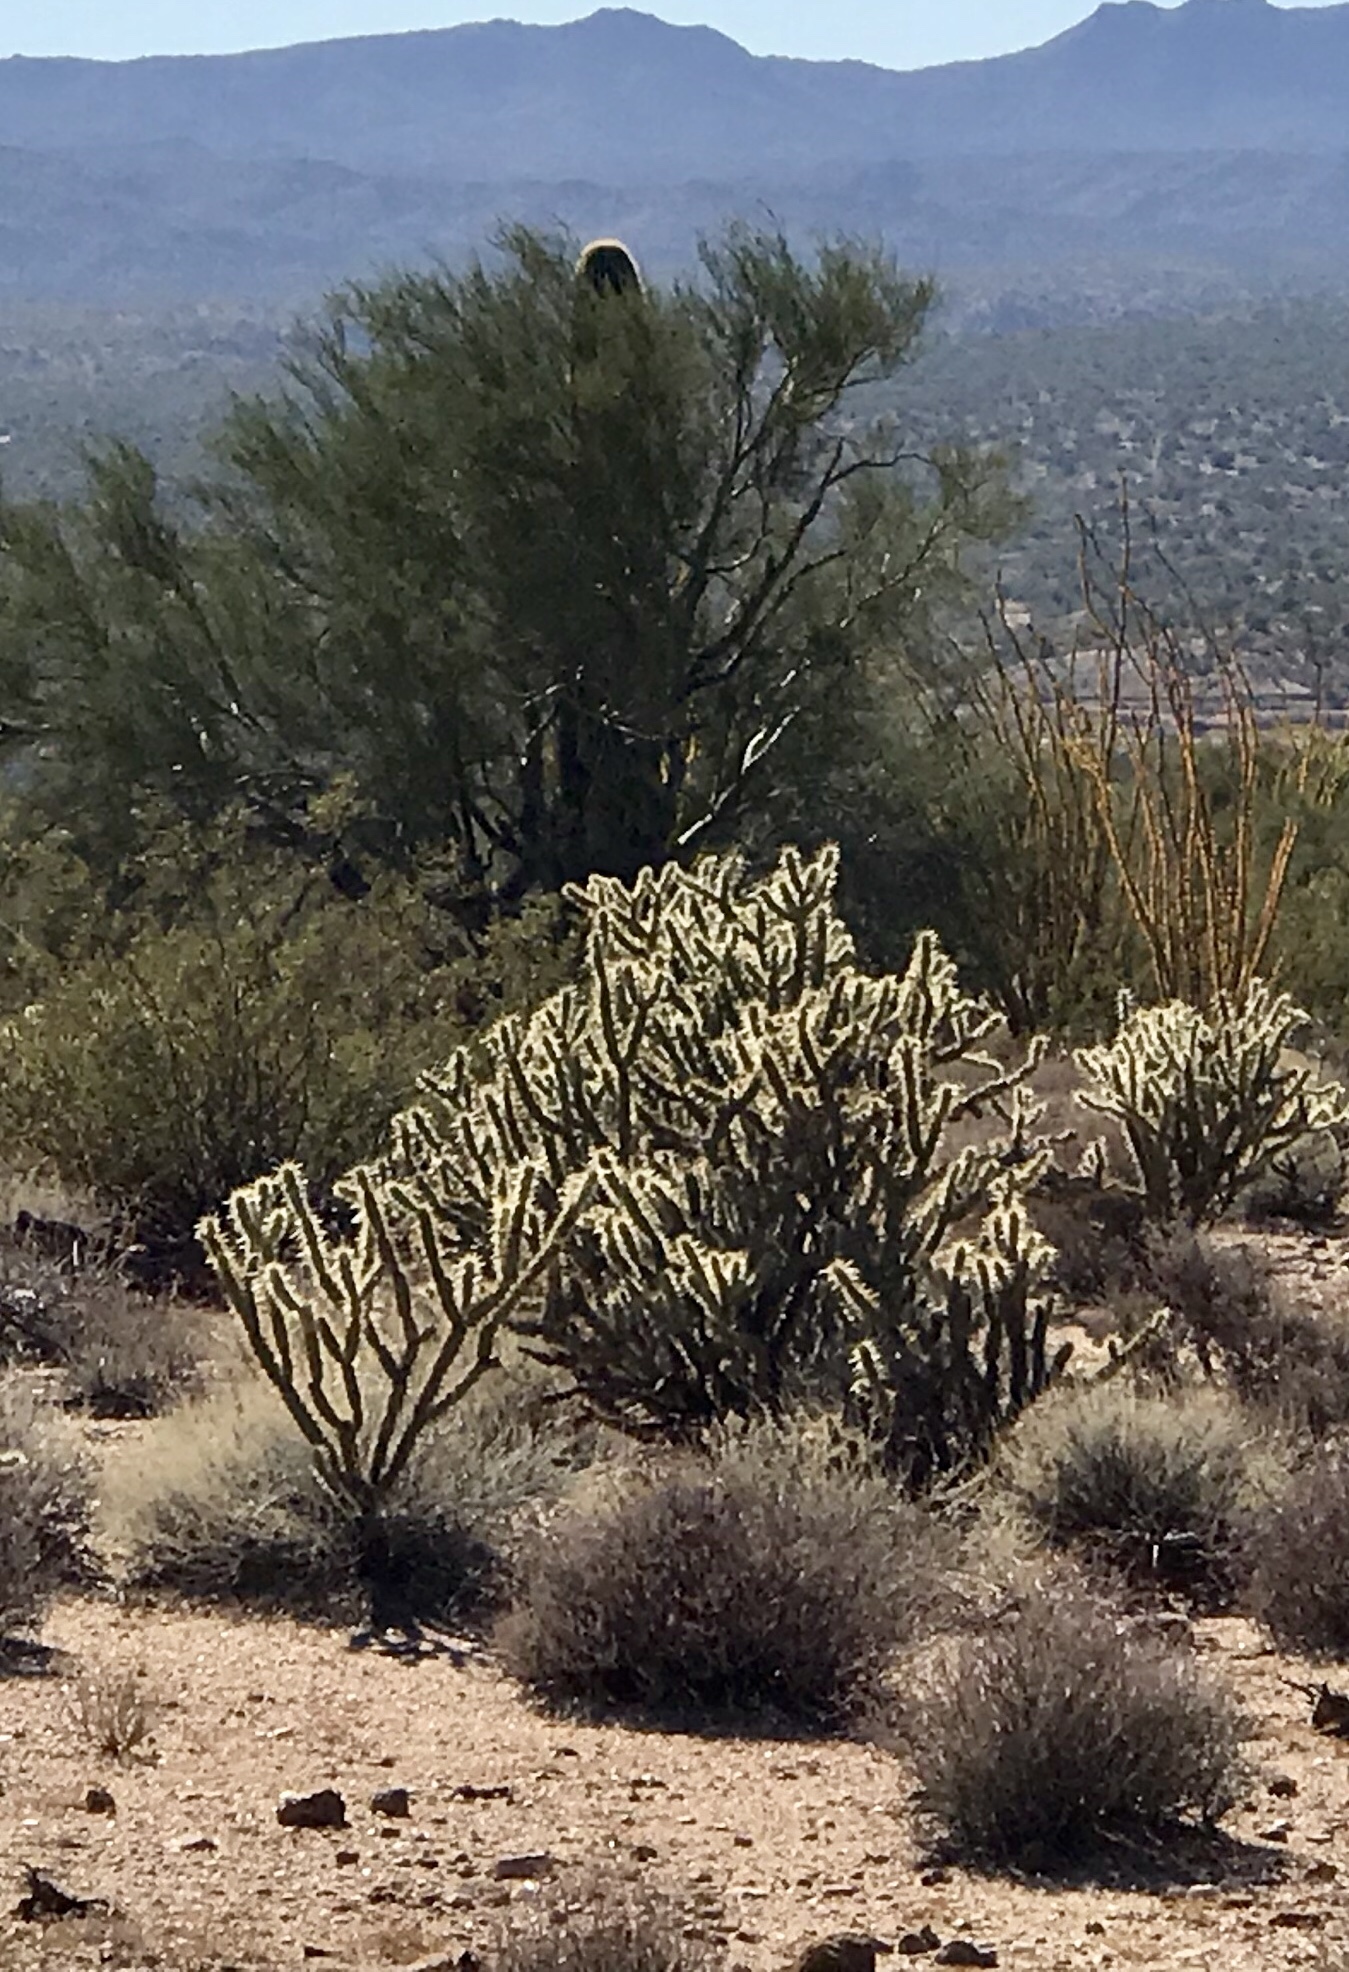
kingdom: Plantae
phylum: Tracheophyta
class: Magnoliopsida
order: Caryophyllales
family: Cactaceae
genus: Cylindropuntia
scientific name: Cylindropuntia acanthocarpa
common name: Buckhorn cholla
